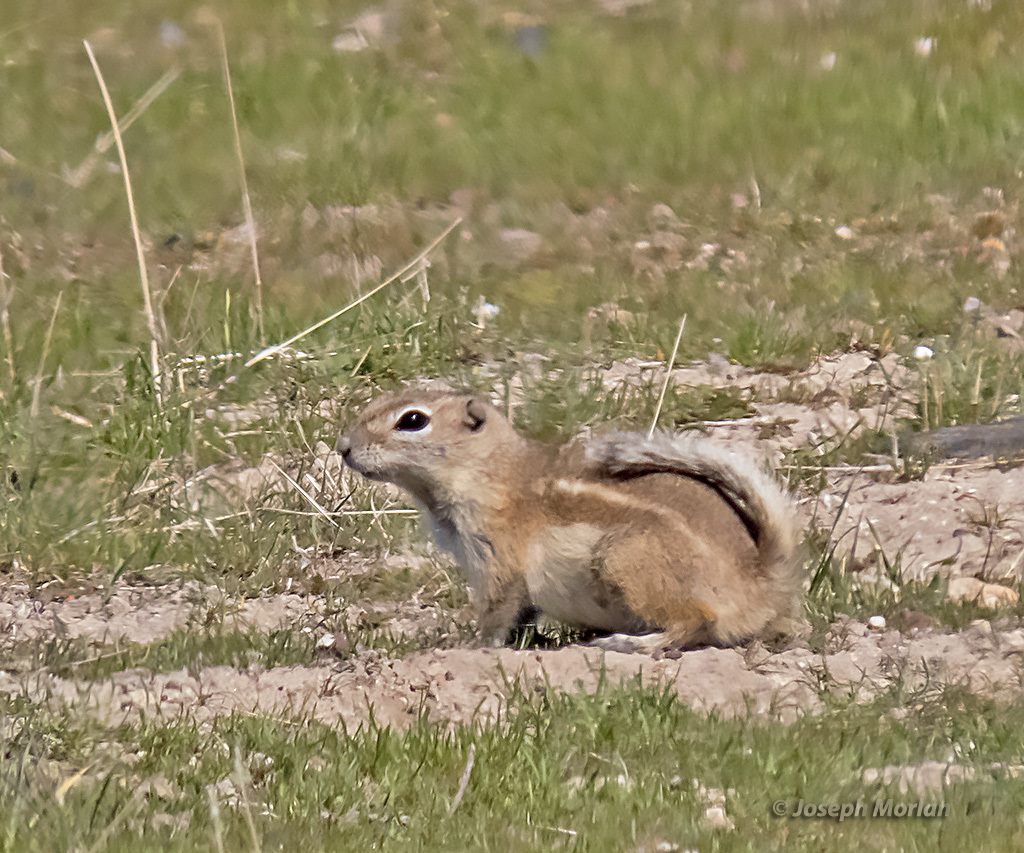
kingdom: Animalia
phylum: Chordata
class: Mammalia
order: Rodentia
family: Sciuridae
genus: Ammospermophilus
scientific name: Ammospermophilus nelsoni
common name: Nelson's antelope squirrel
